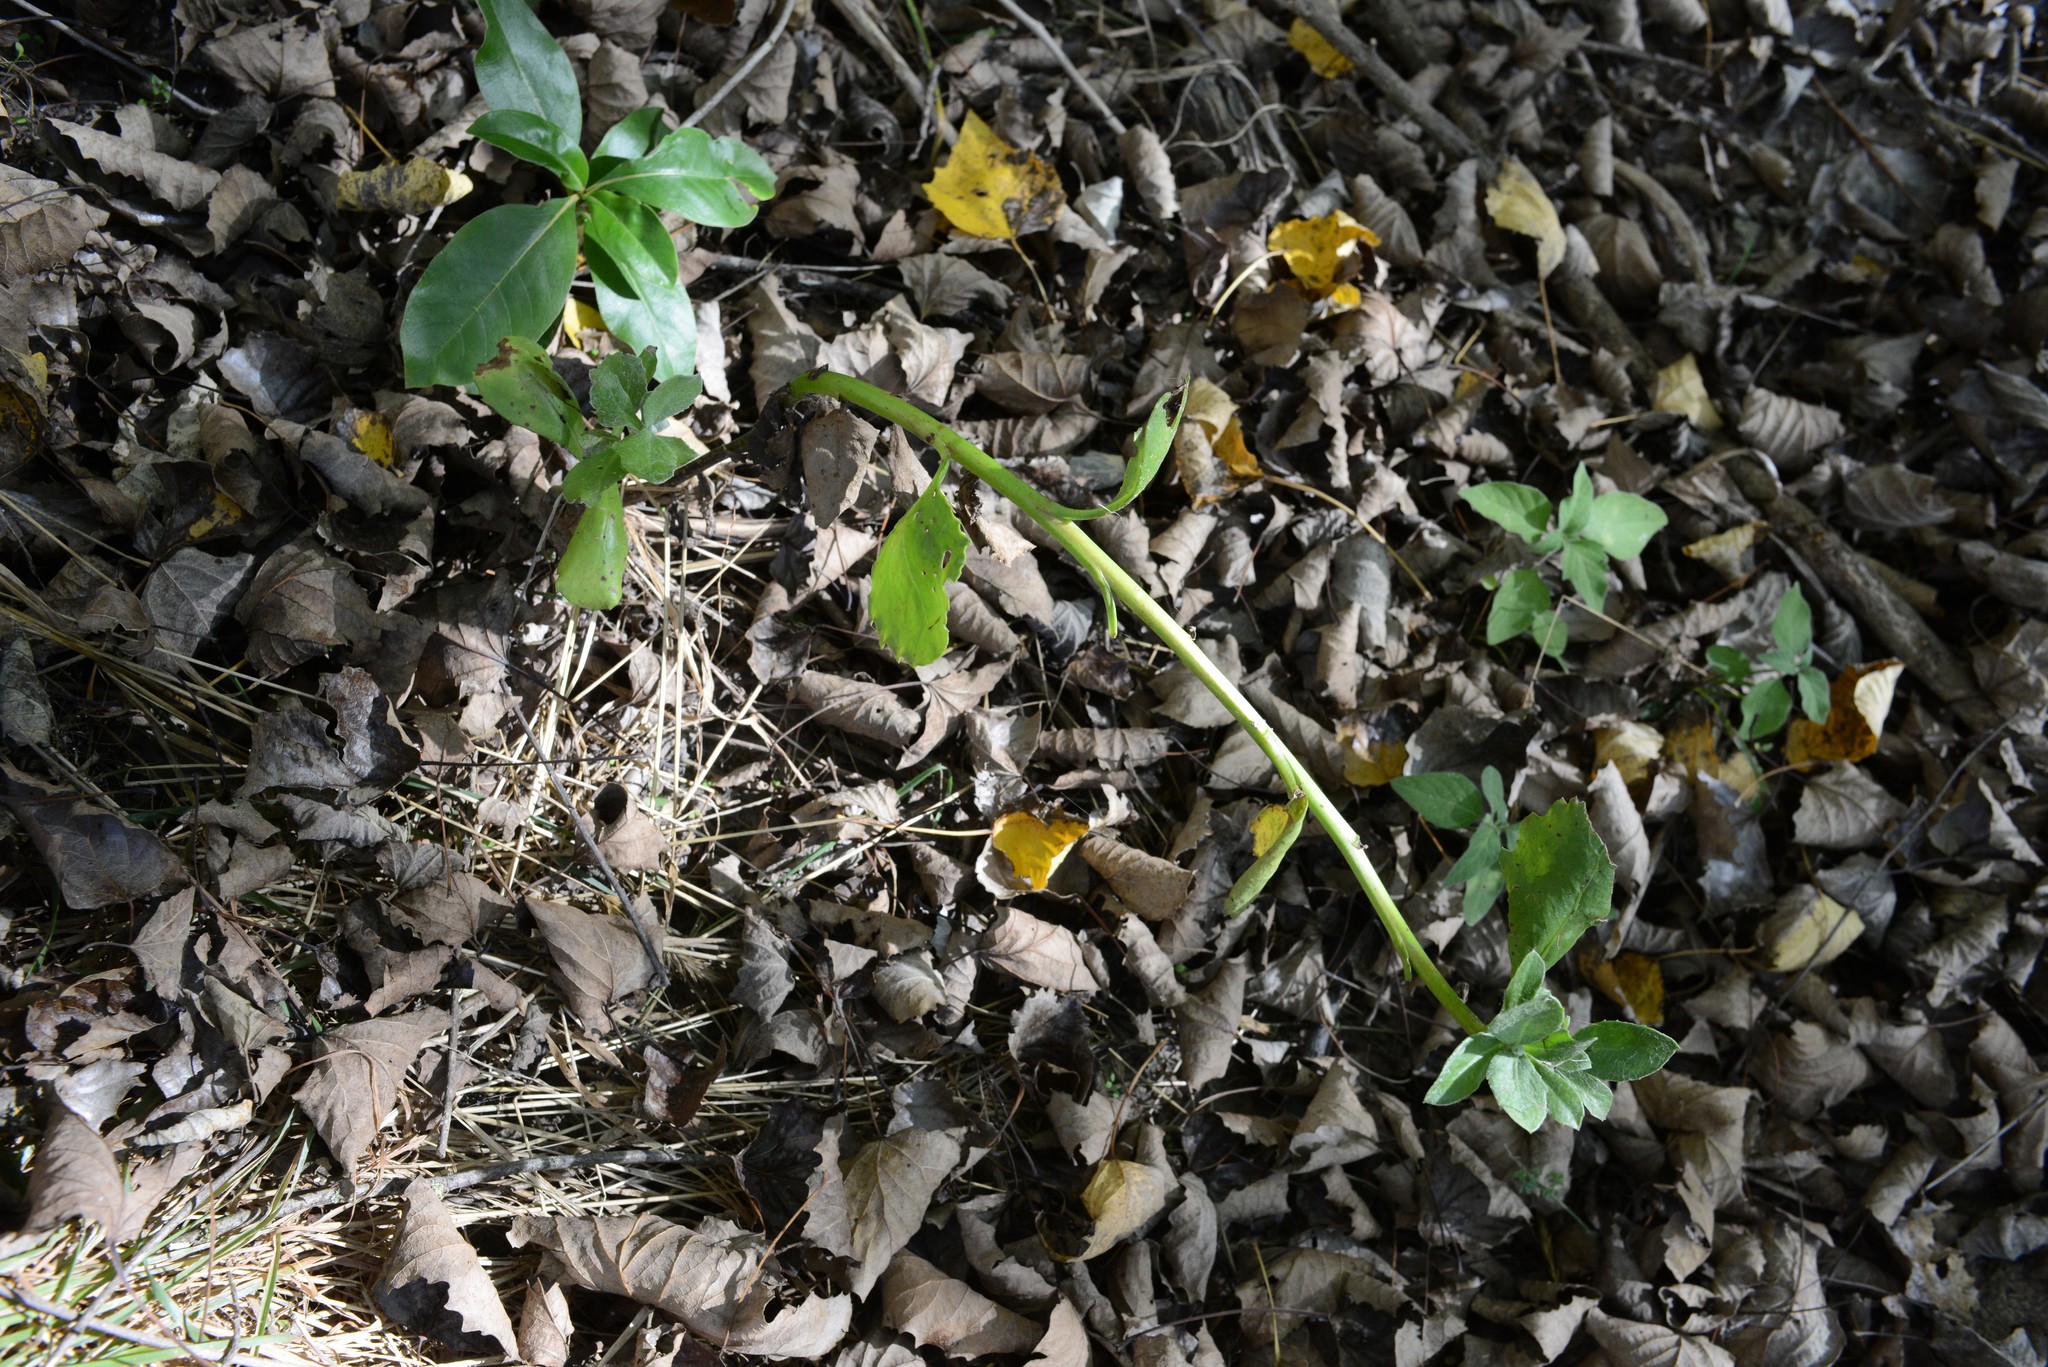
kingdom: Plantae
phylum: Tracheophyta
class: Magnoliopsida
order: Asterales
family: Asteraceae
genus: Osteospermum
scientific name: Osteospermum moniliferum
